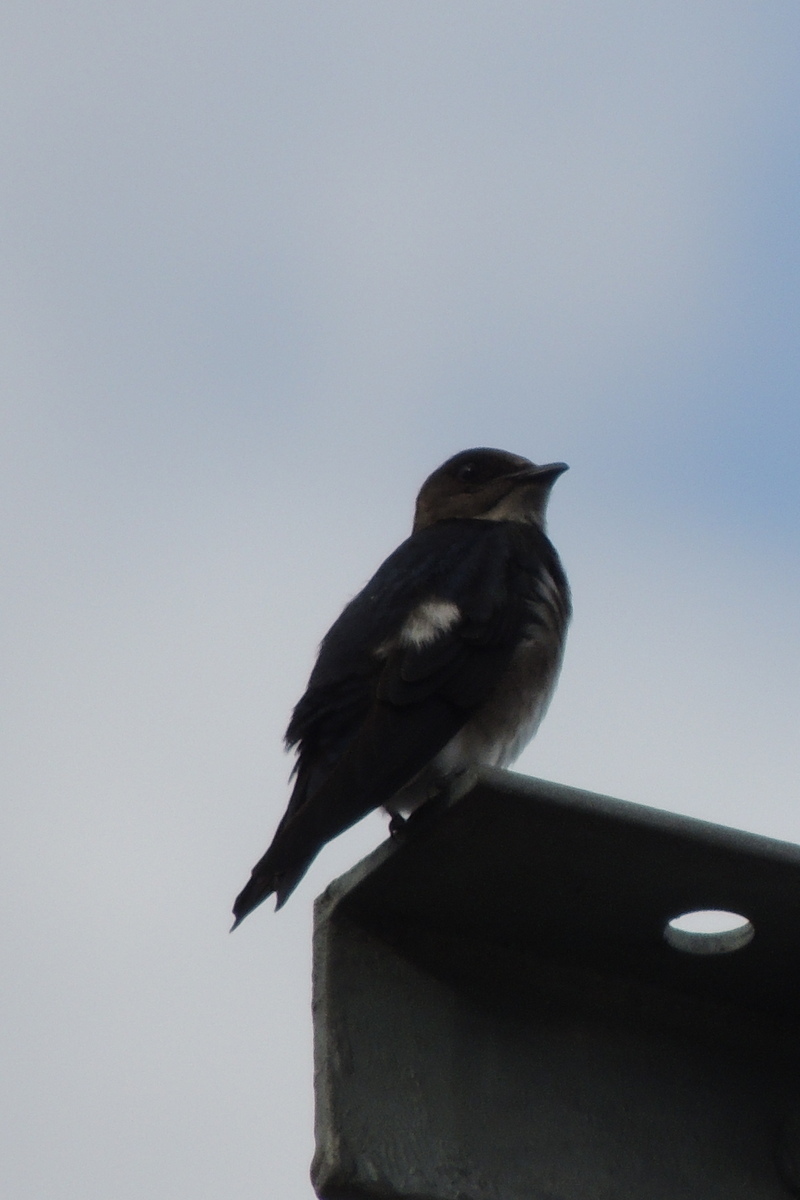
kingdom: Animalia
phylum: Chordata
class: Aves
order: Passeriformes
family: Hirundinidae
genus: Tachycineta
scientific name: Tachycineta albilinea
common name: Mangrove swallow
